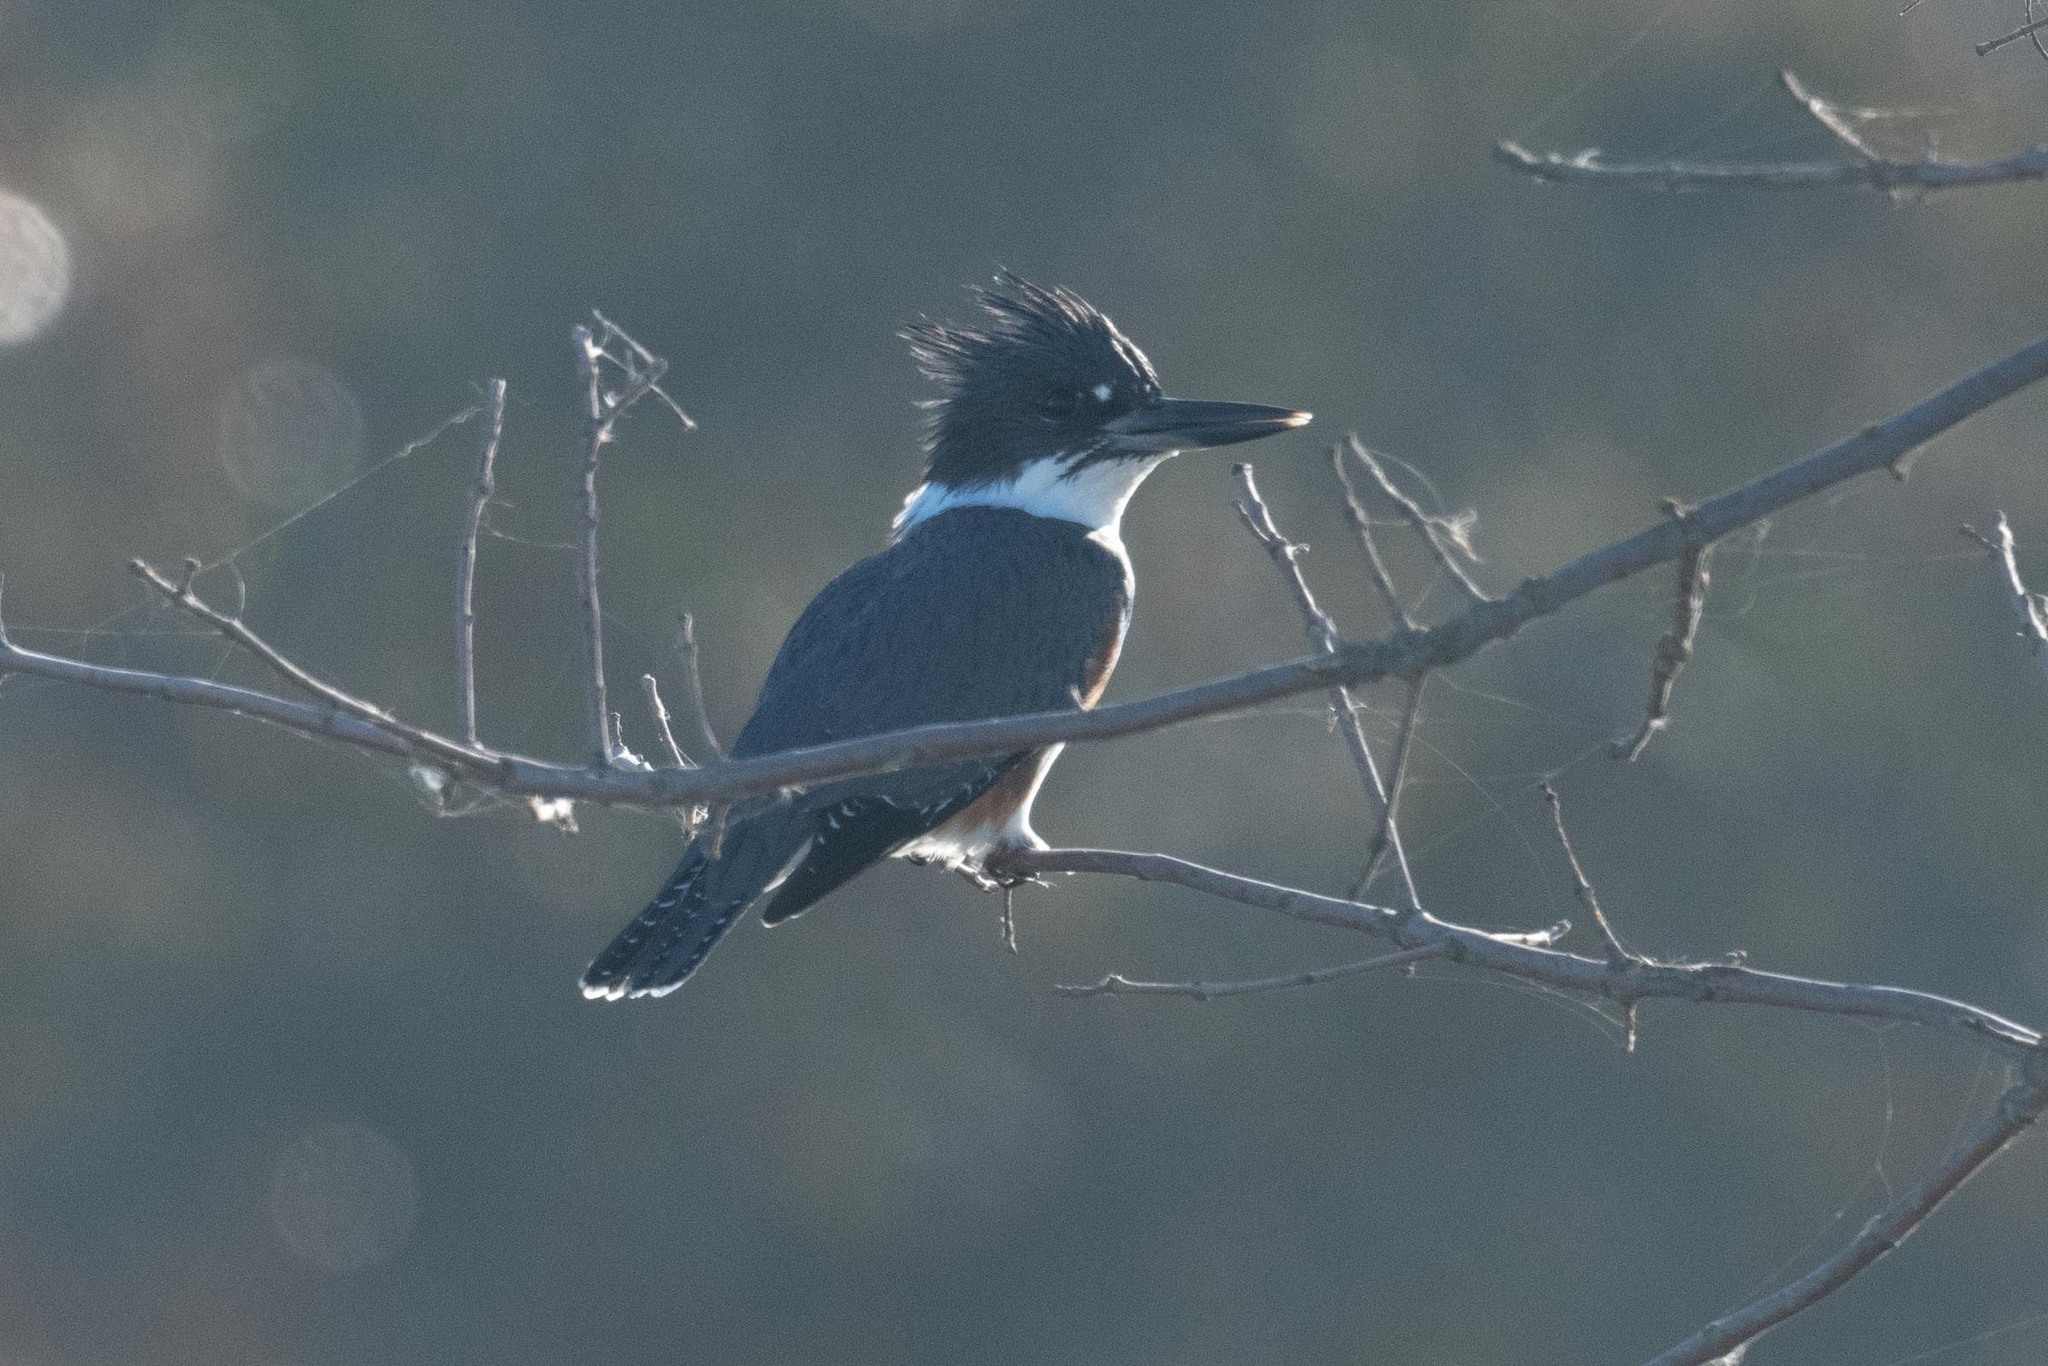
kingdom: Animalia
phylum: Chordata
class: Aves
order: Coraciiformes
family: Alcedinidae
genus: Megaceryle
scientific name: Megaceryle alcyon
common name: Belted kingfisher
